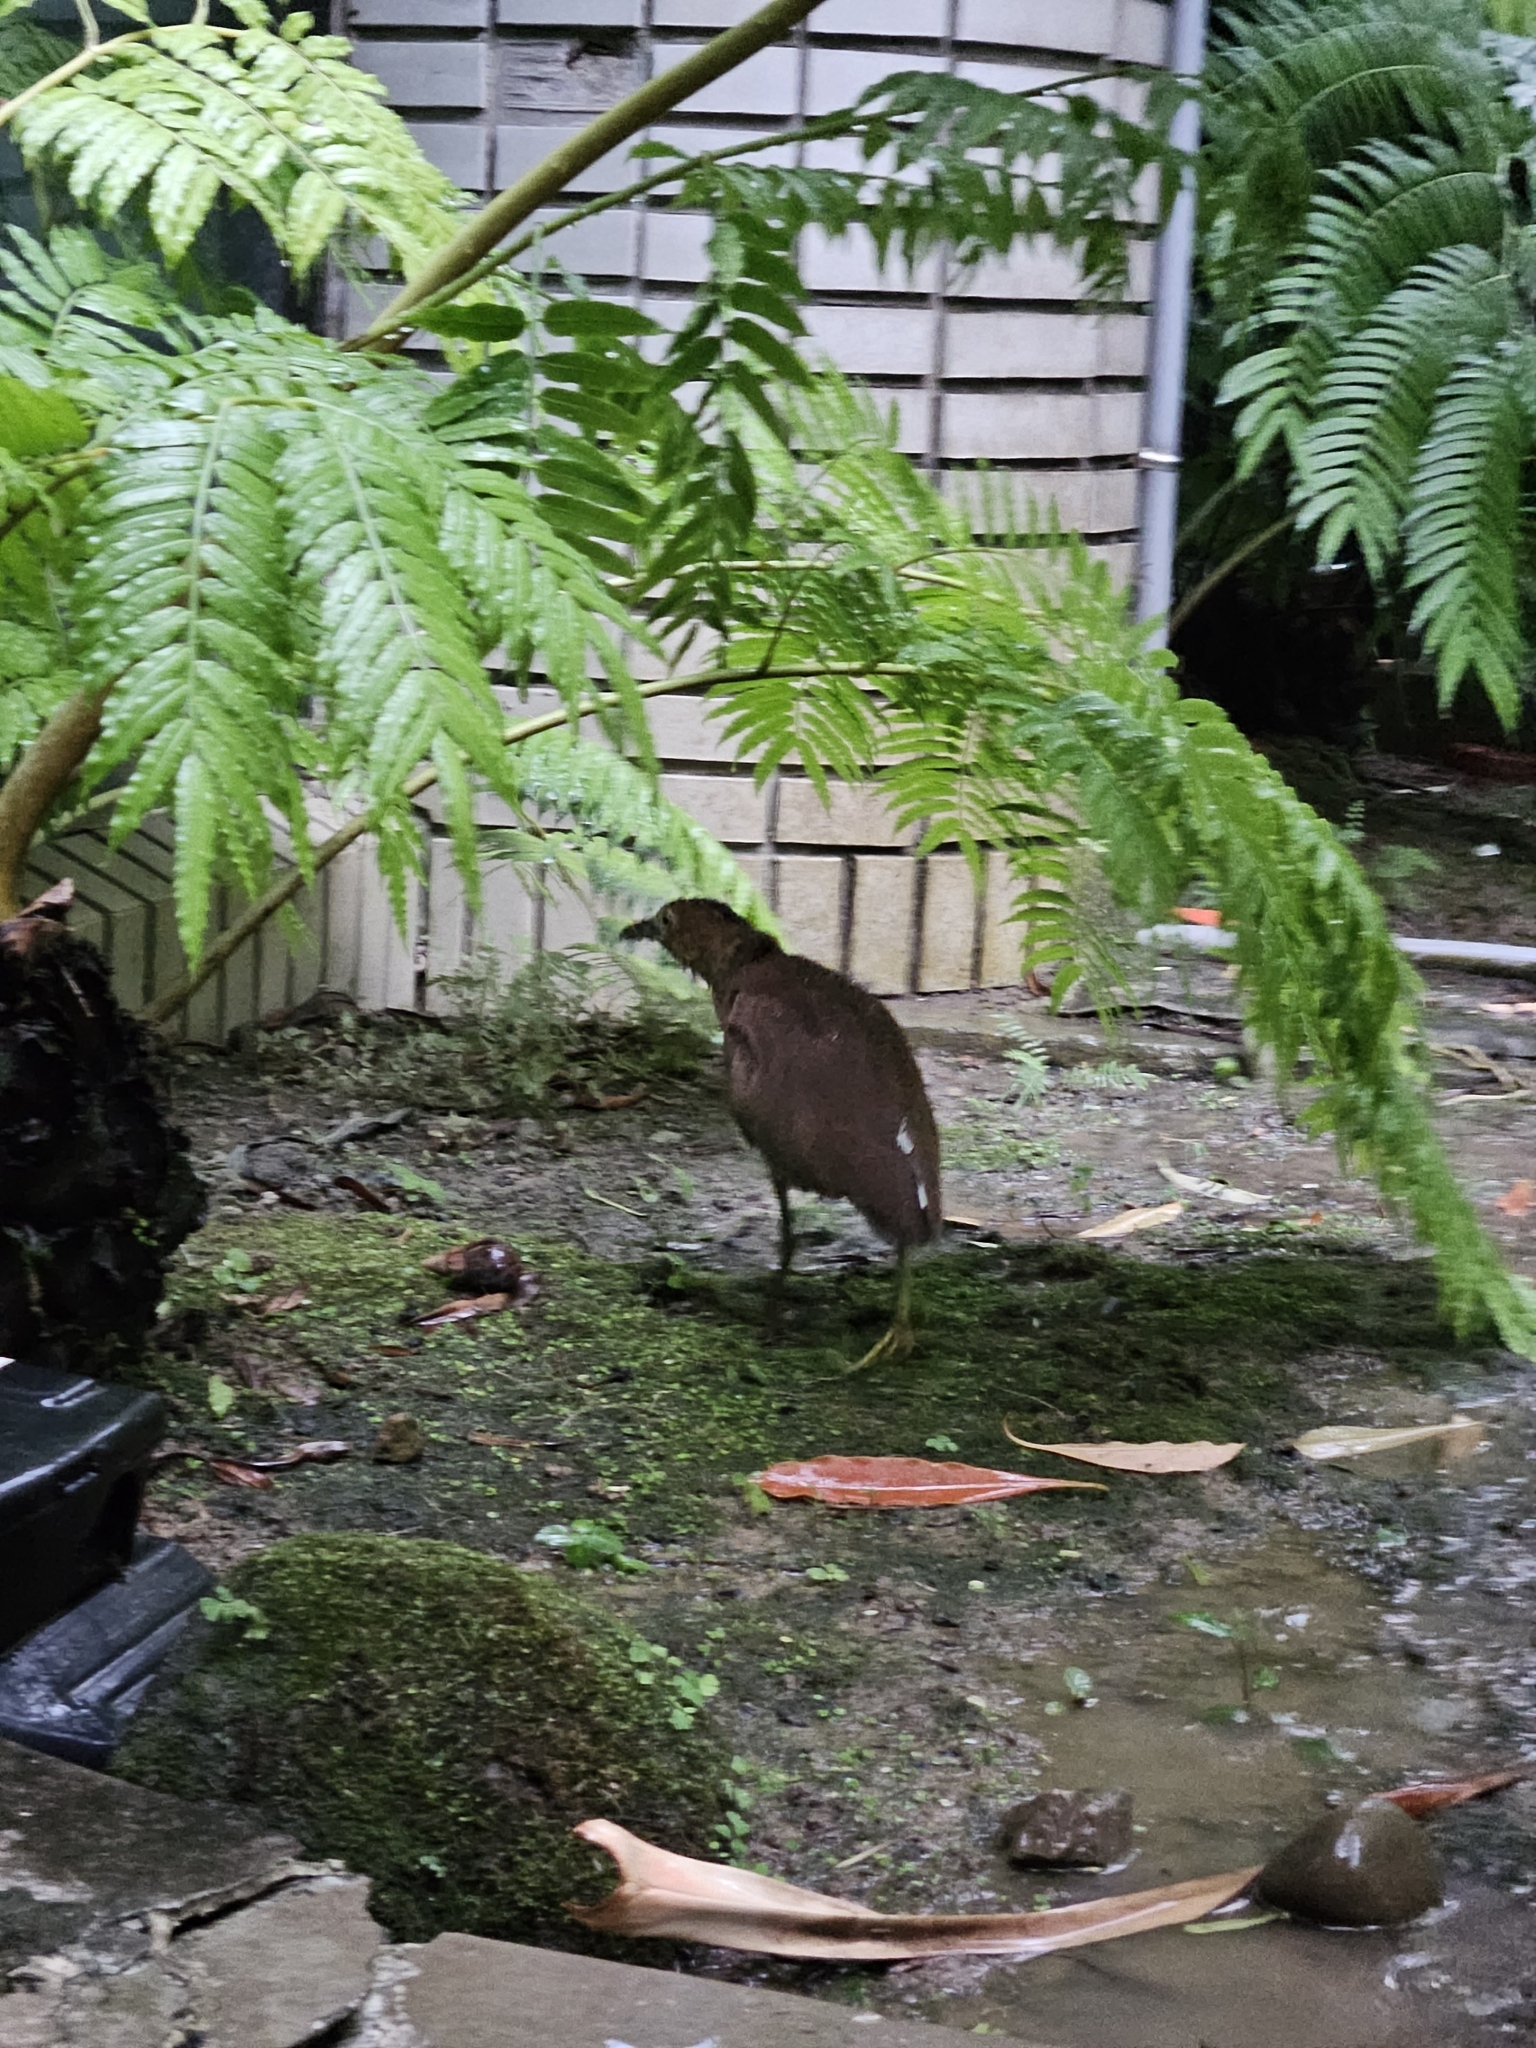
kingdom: Animalia
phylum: Chordata
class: Aves
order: Pelecaniformes
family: Ardeidae
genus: Gorsachius
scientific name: Gorsachius melanolophus
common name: Malayan night heron
